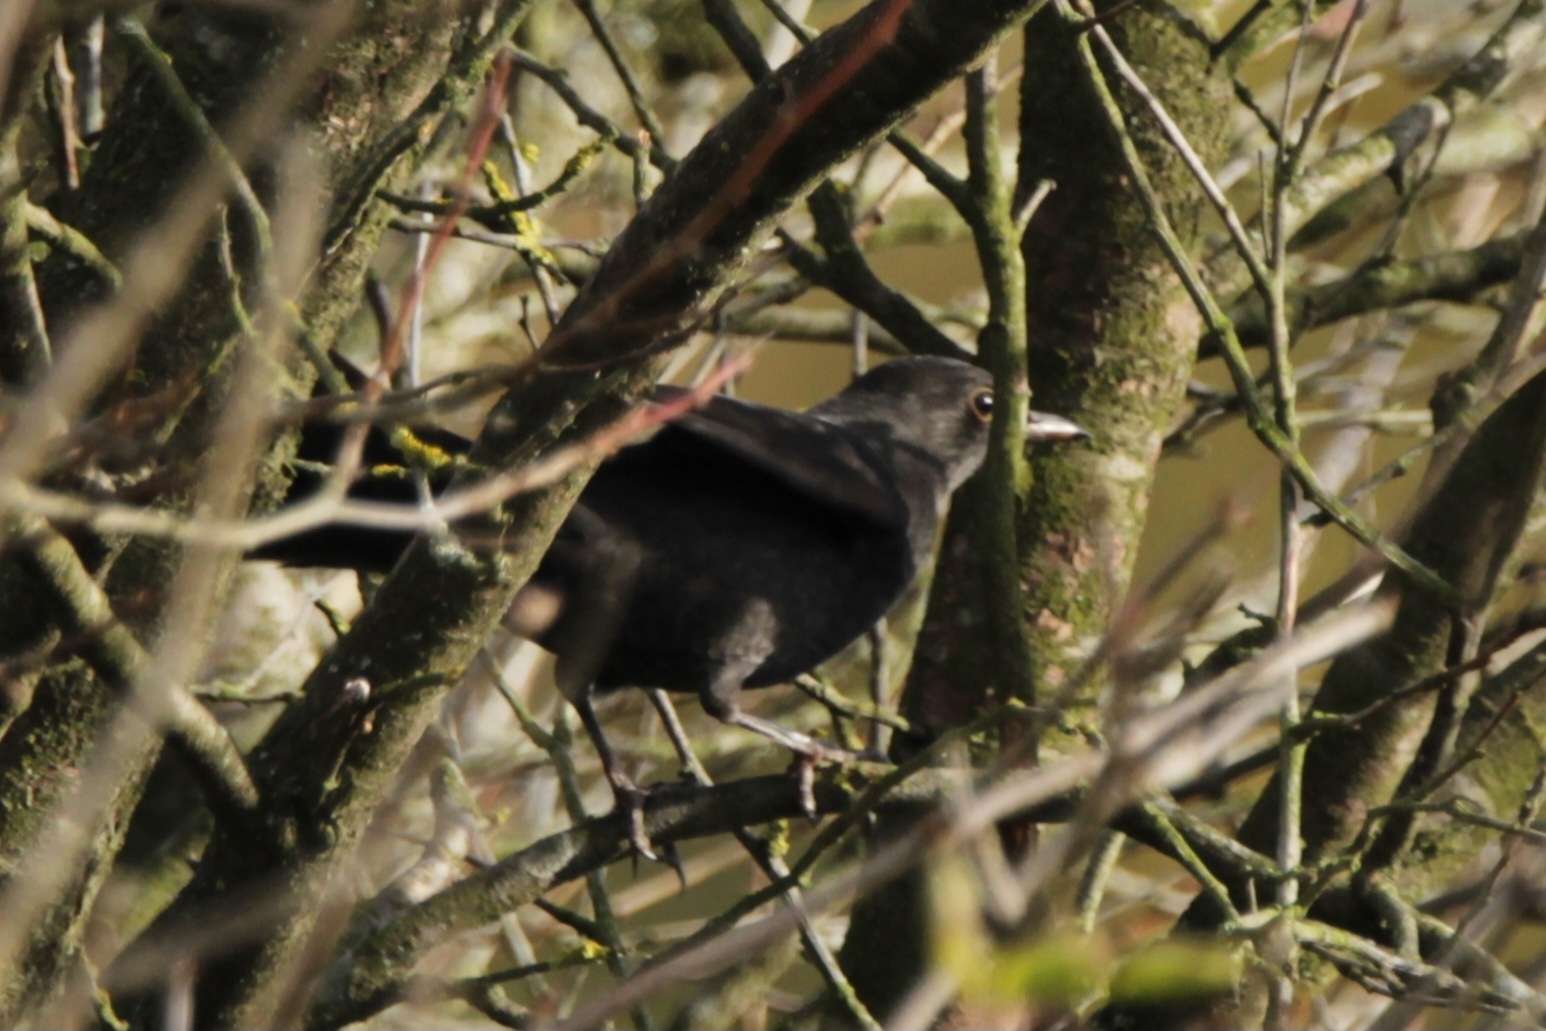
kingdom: Animalia
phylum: Chordata
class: Aves
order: Passeriformes
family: Turdidae
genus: Turdus
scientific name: Turdus merula
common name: Common blackbird
